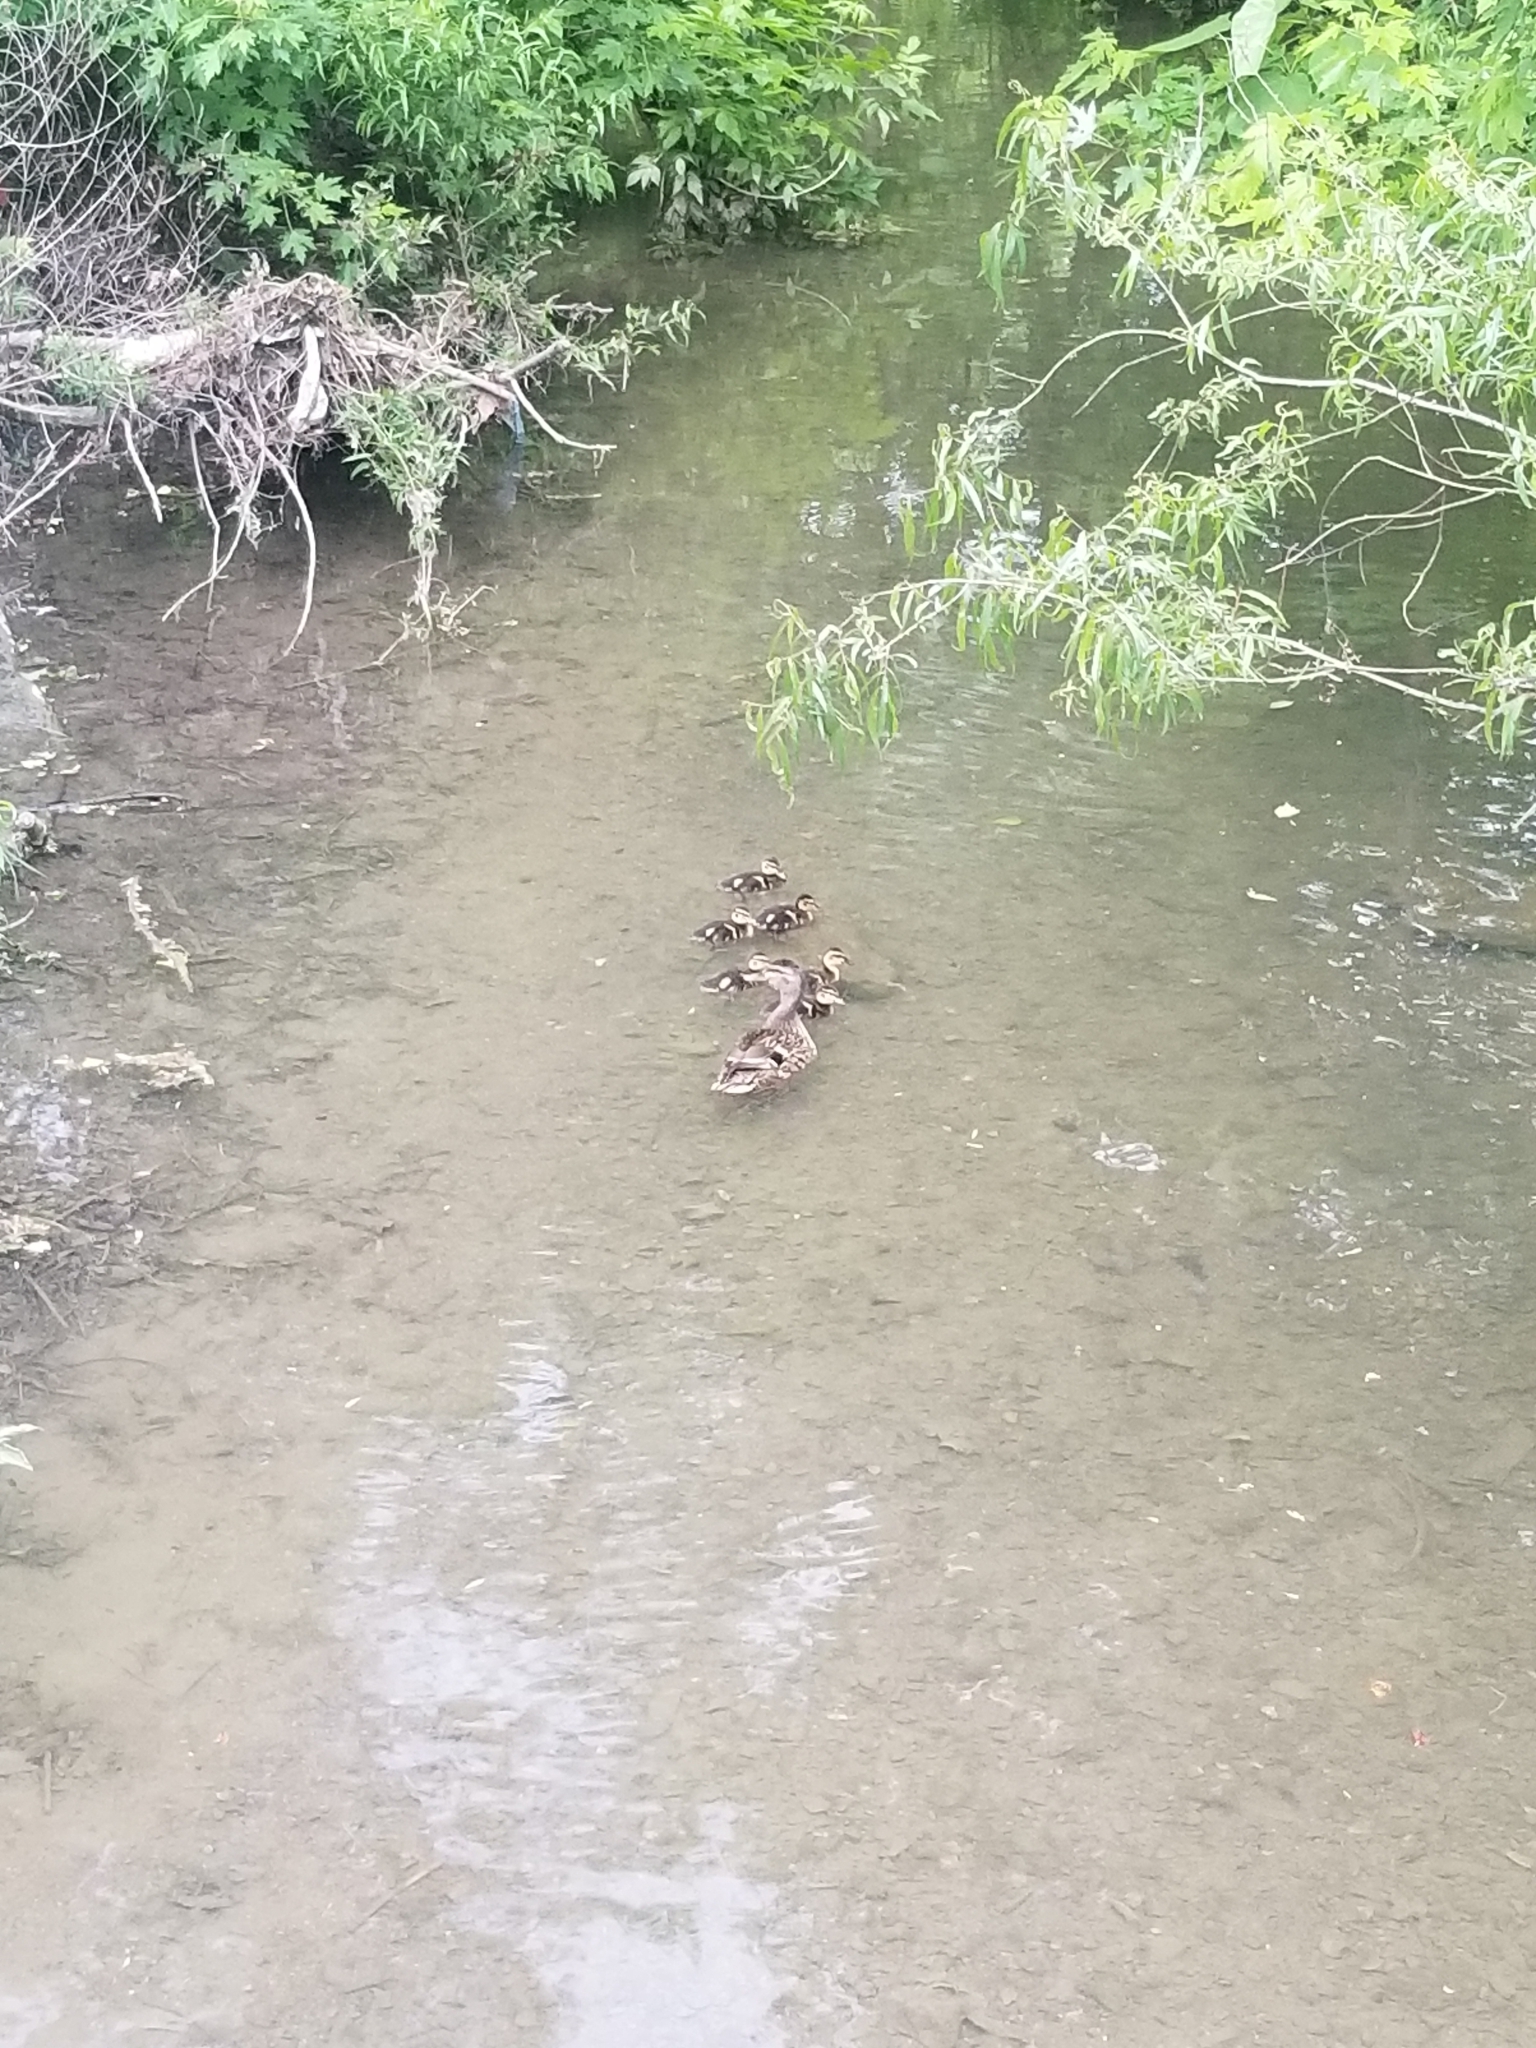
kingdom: Animalia
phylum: Chordata
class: Aves
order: Anseriformes
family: Anatidae
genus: Anas
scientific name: Anas platyrhynchos
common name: Mallard
